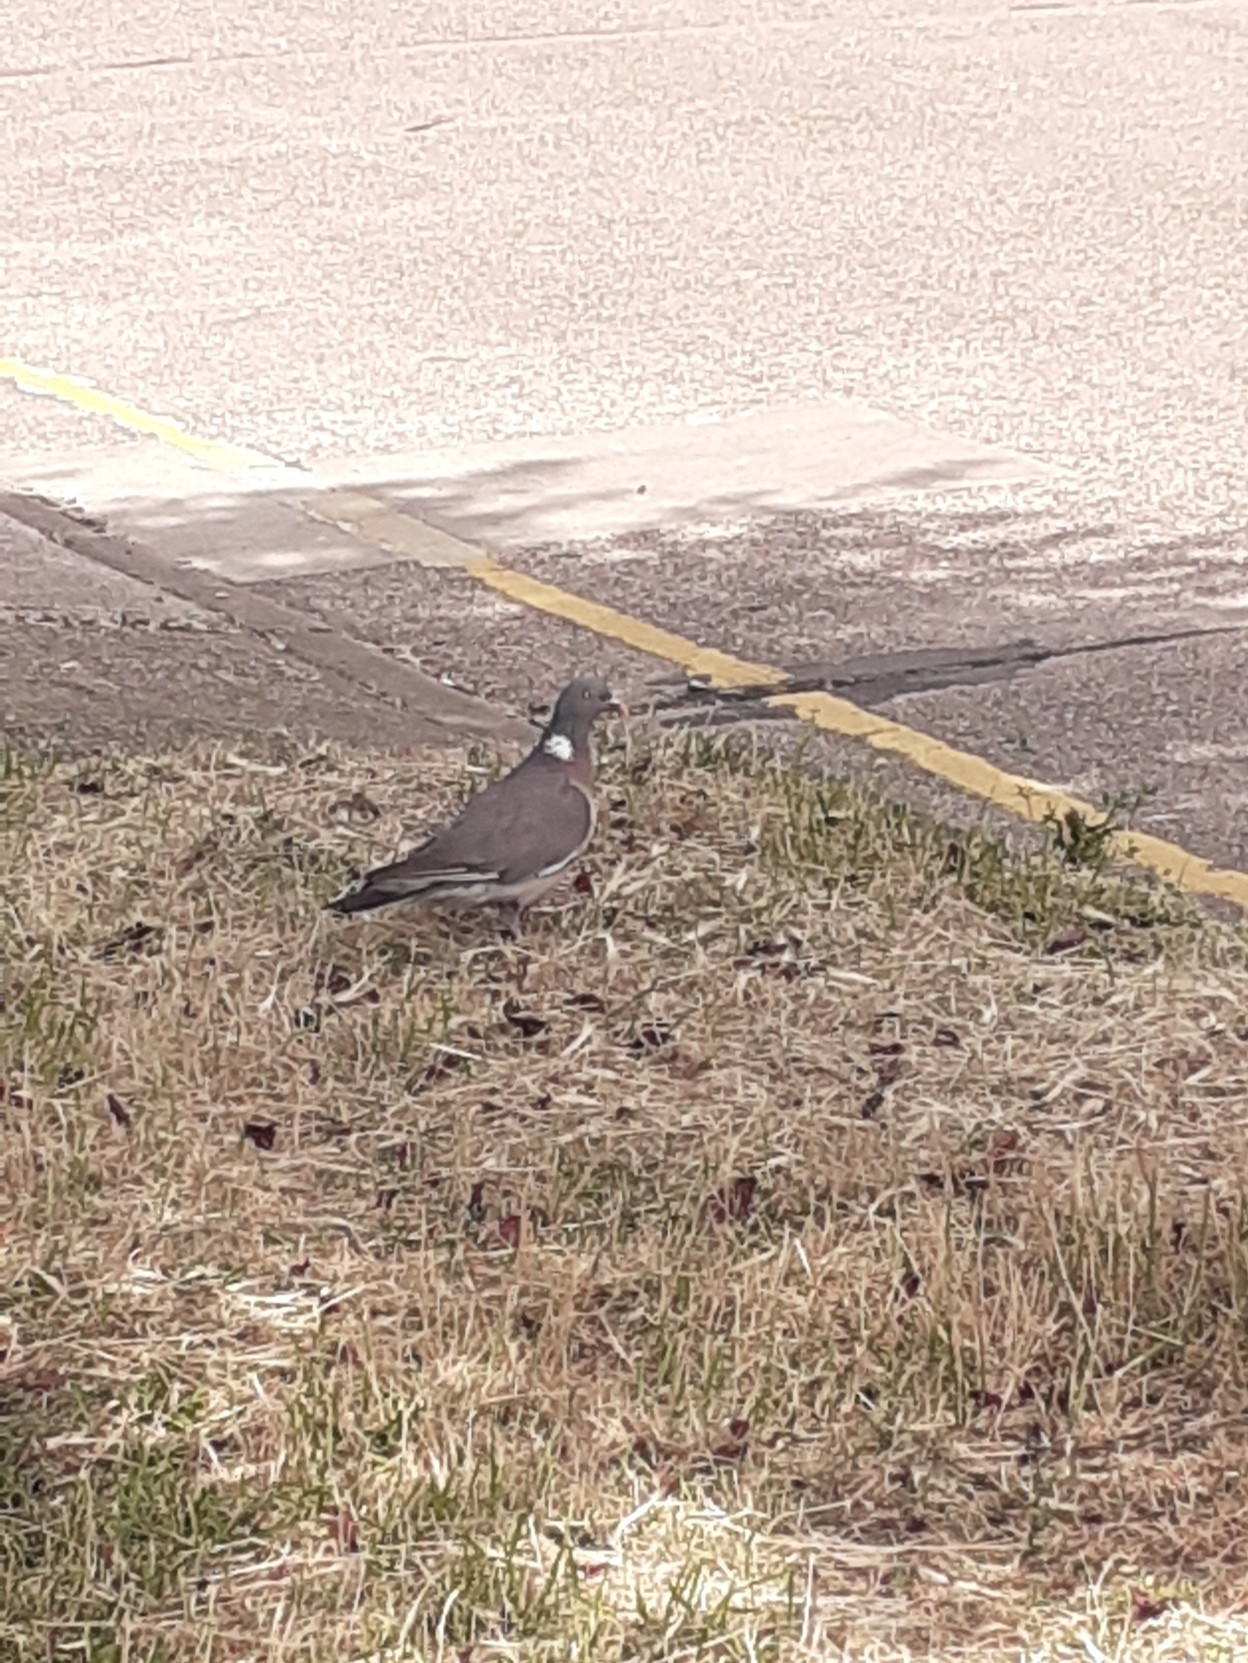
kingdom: Animalia
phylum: Chordata
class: Aves
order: Columbiformes
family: Columbidae
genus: Columba
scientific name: Columba palumbus
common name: Common wood pigeon
